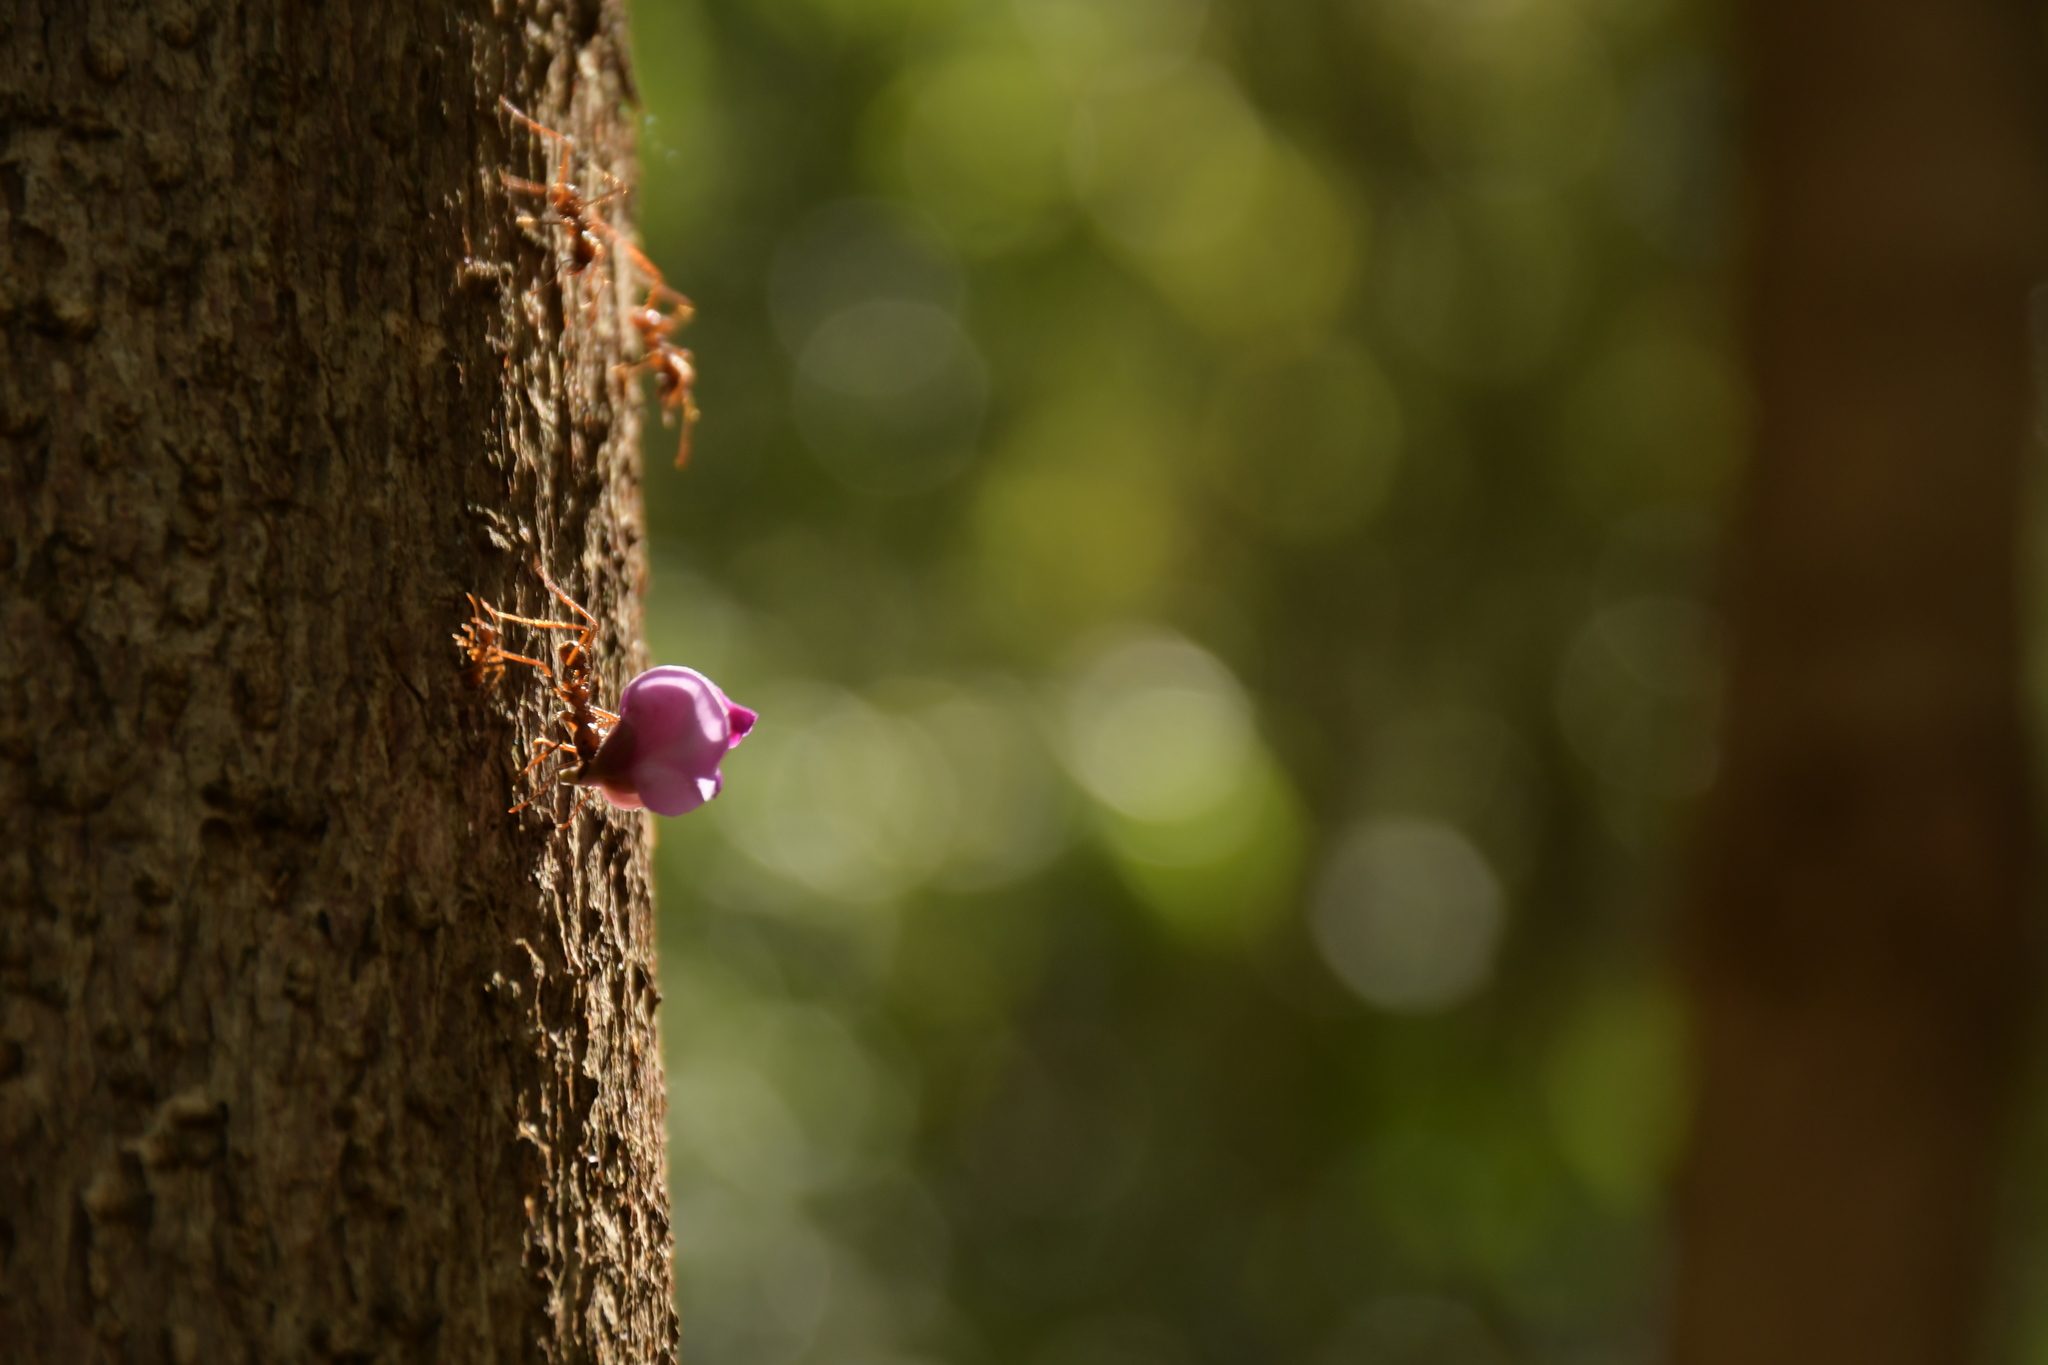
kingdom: Animalia
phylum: Arthropoda
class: Insecta
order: Hymenoptera
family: Formicidae
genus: Atta
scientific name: Atta mexicana
